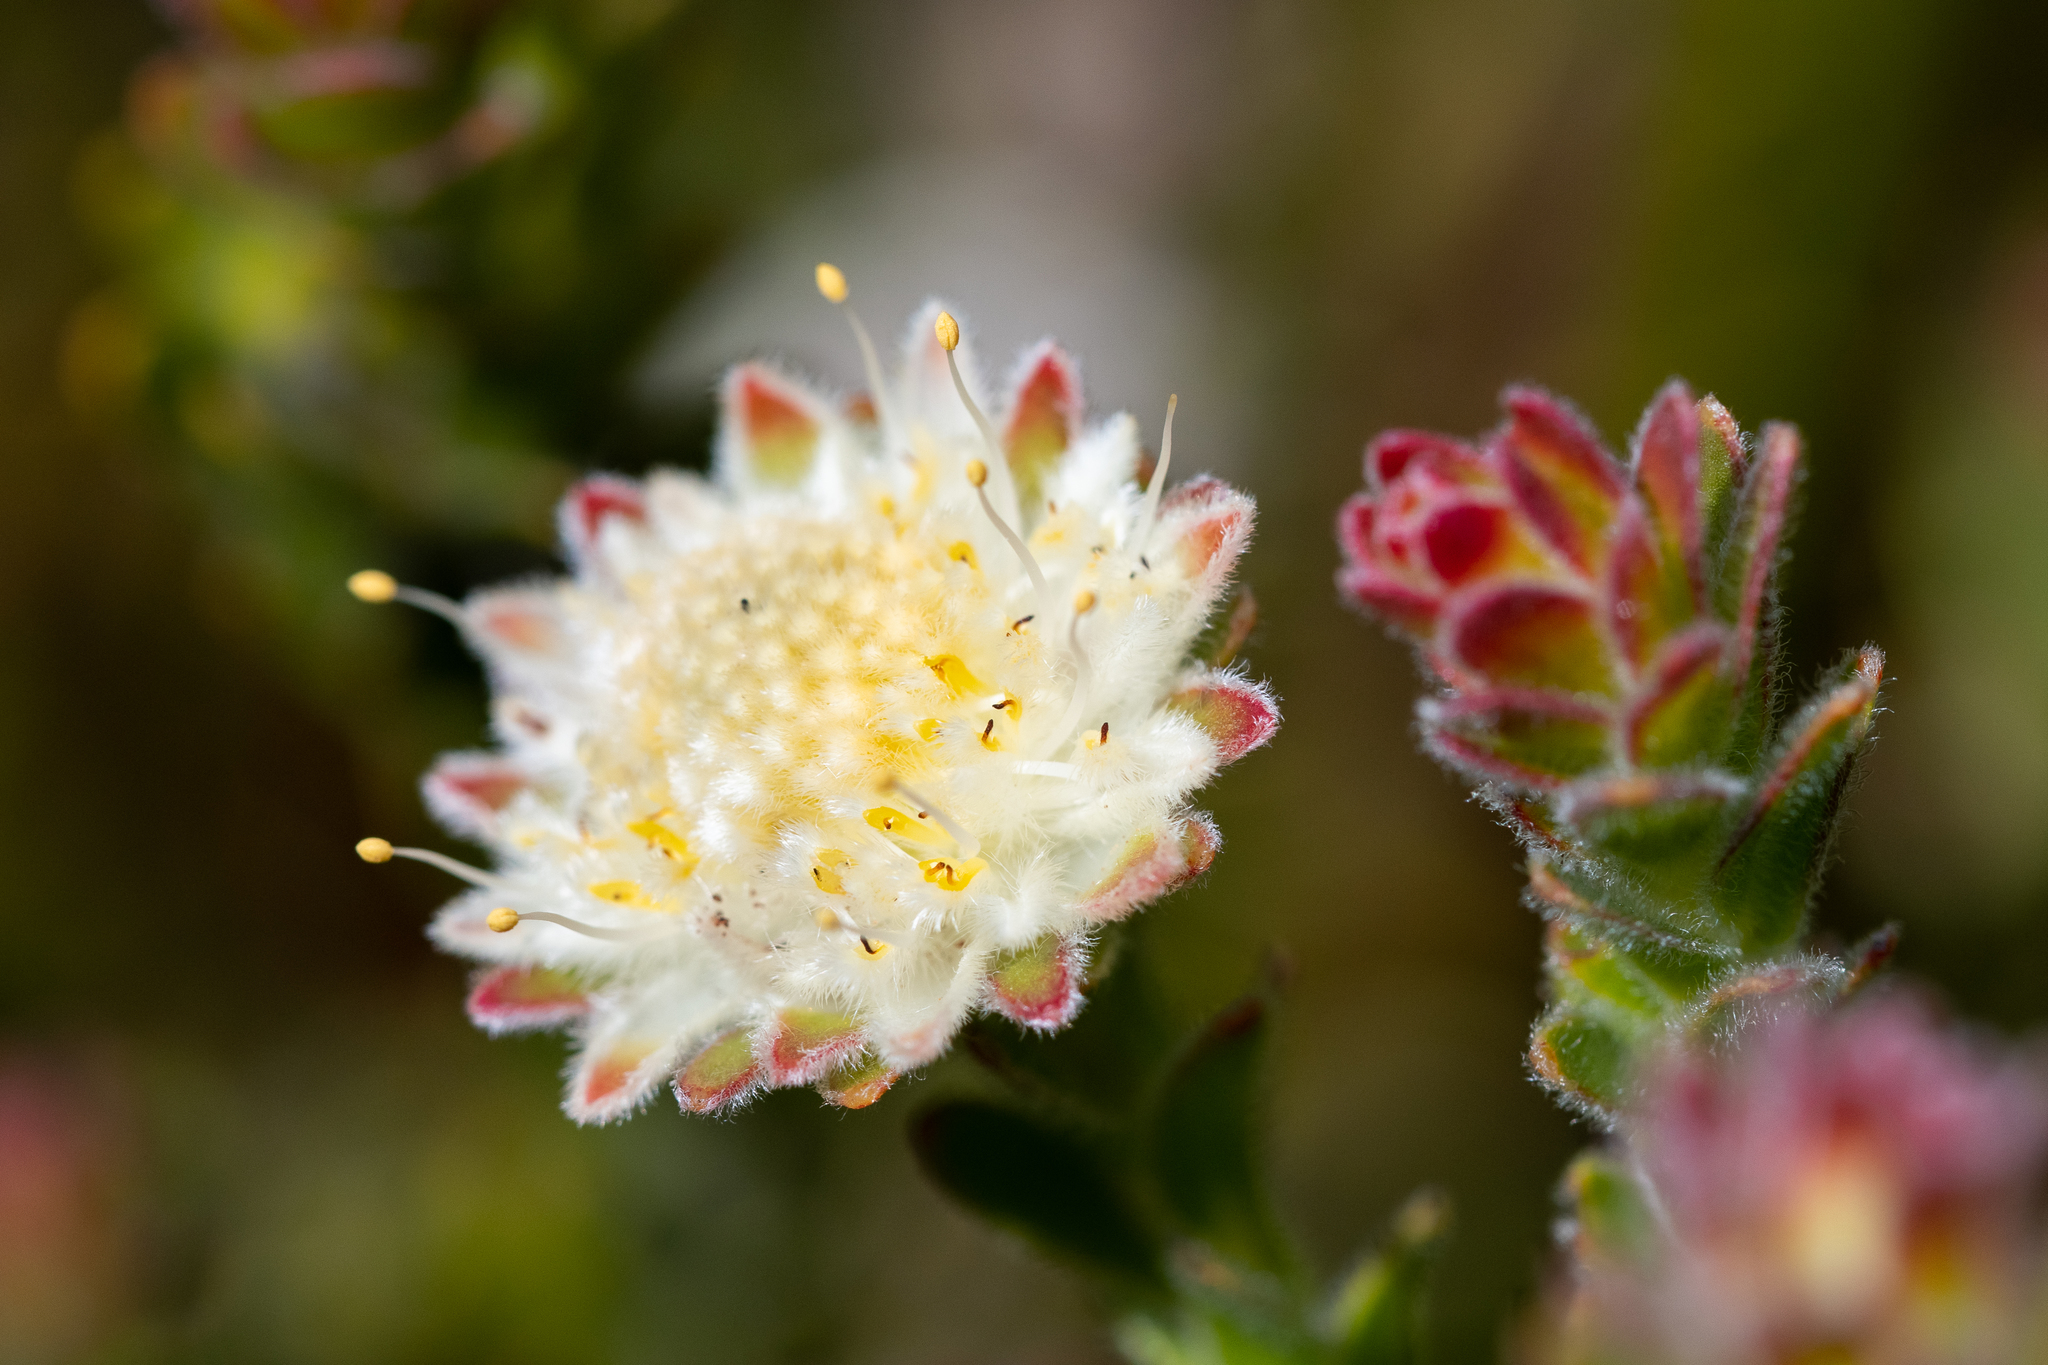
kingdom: Plantae
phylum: Tracheophyta
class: Magnoliopsida
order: Proteales
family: Proteaceae
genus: Diastella
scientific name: Diastella fraterna
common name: Palmiet silkypuff
